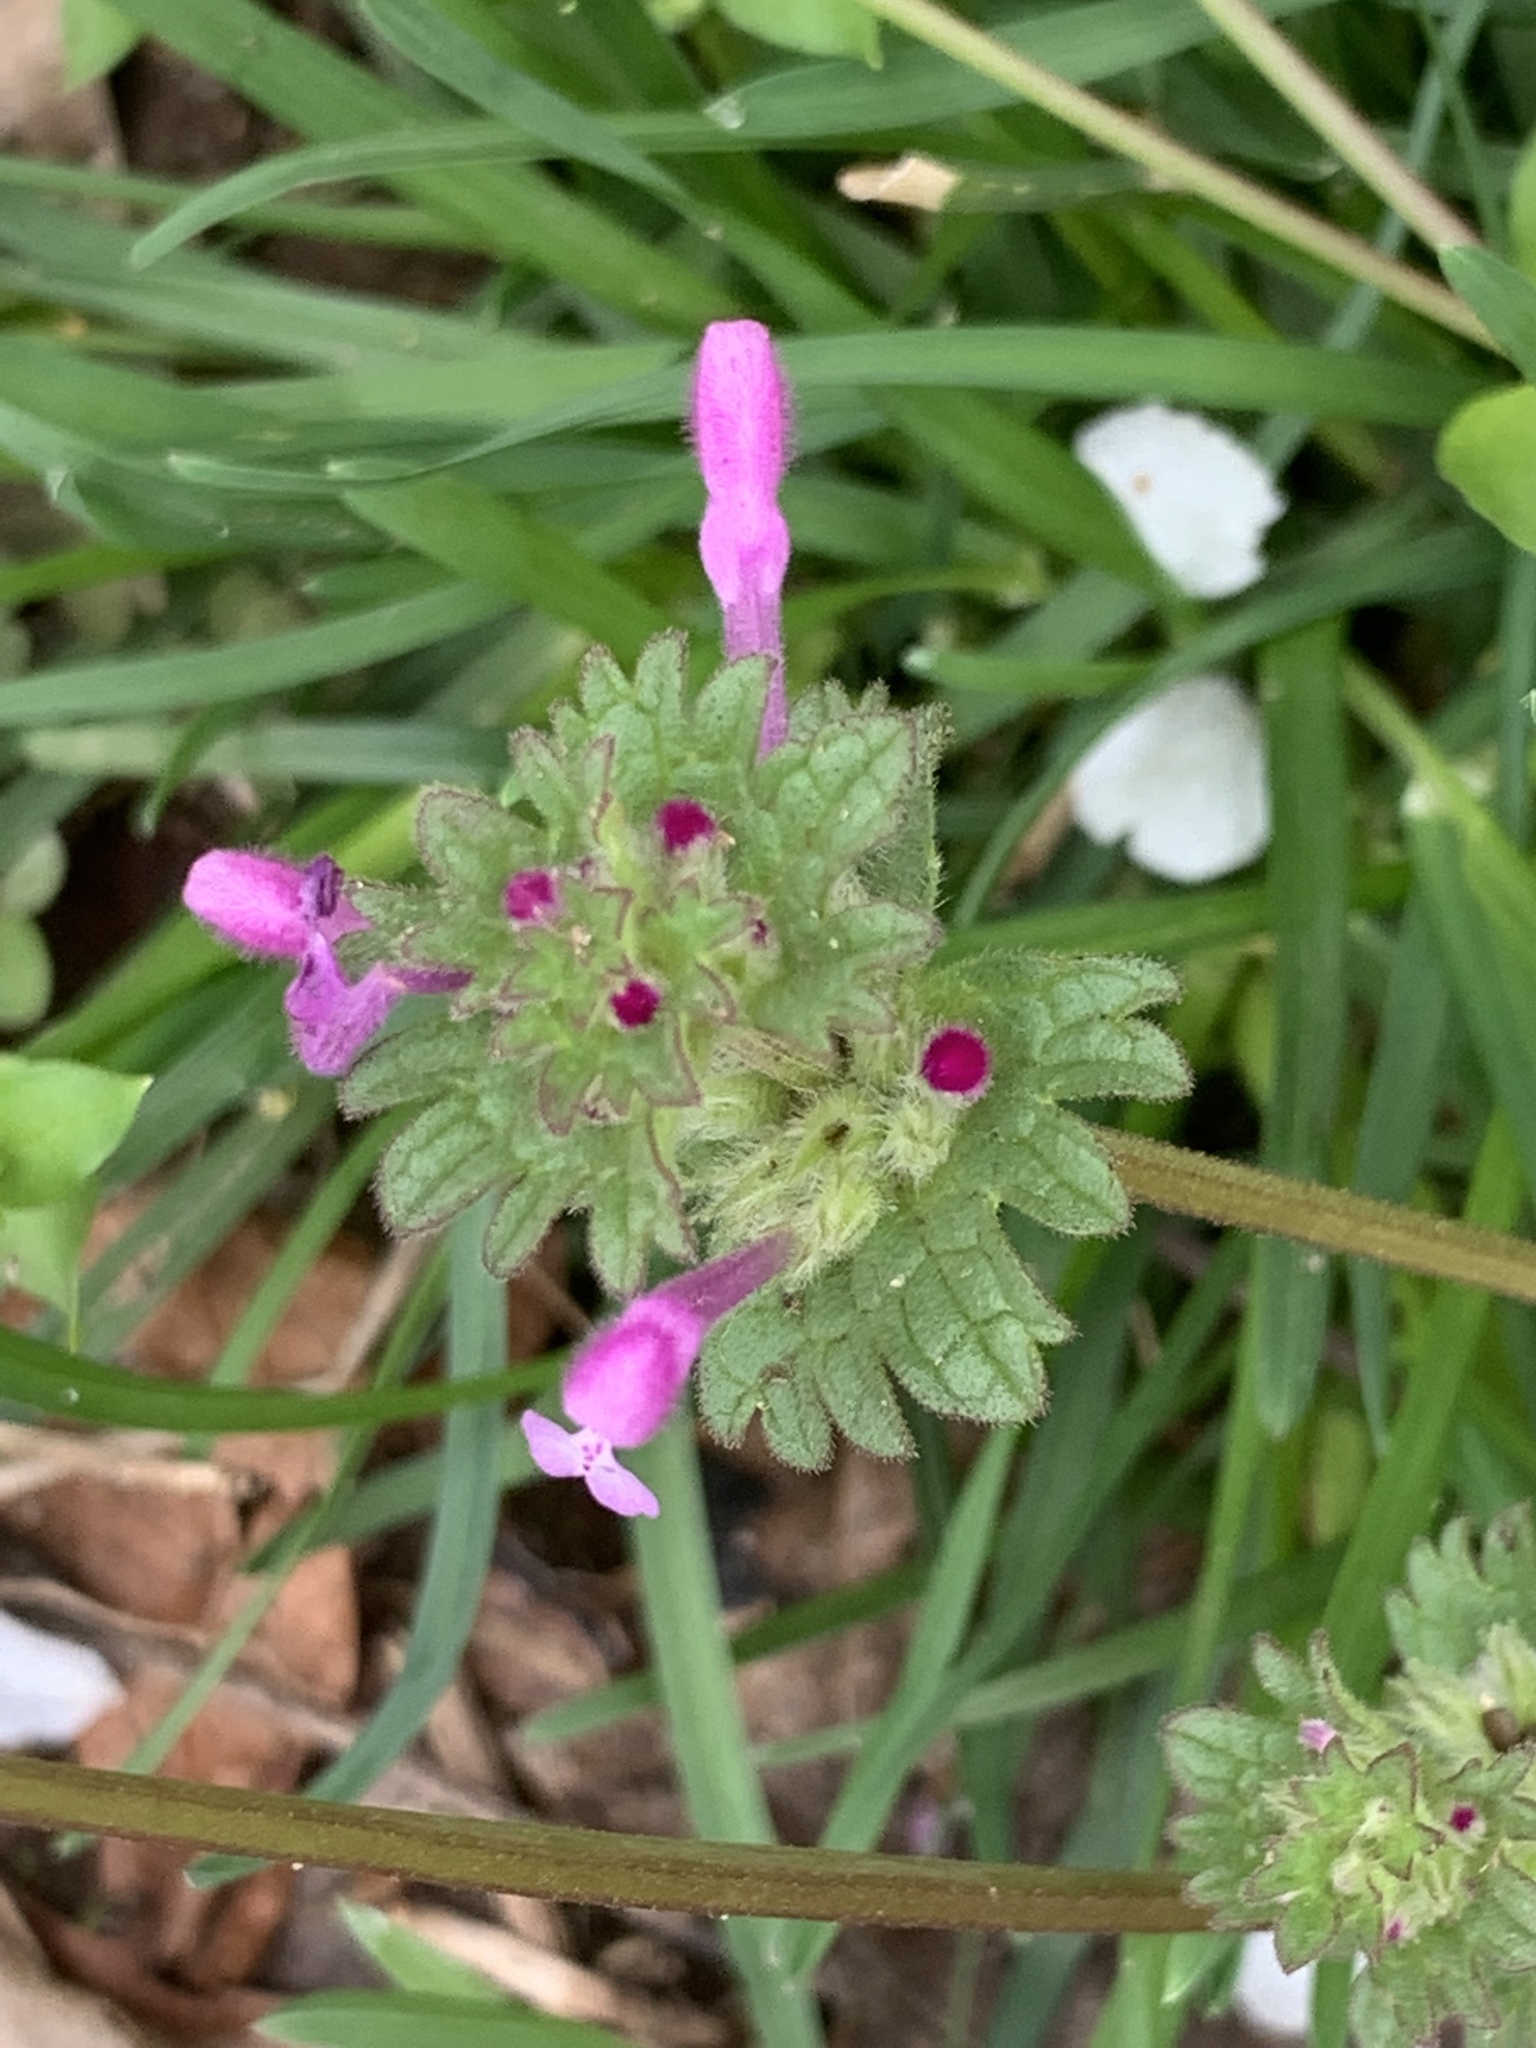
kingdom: Plantae
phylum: Tracheophyta
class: Magnoliopsida
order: Lamiales
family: Lamiaceae
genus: Lamium
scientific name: Lamium amplexicaule
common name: Henbit dead-nettle
